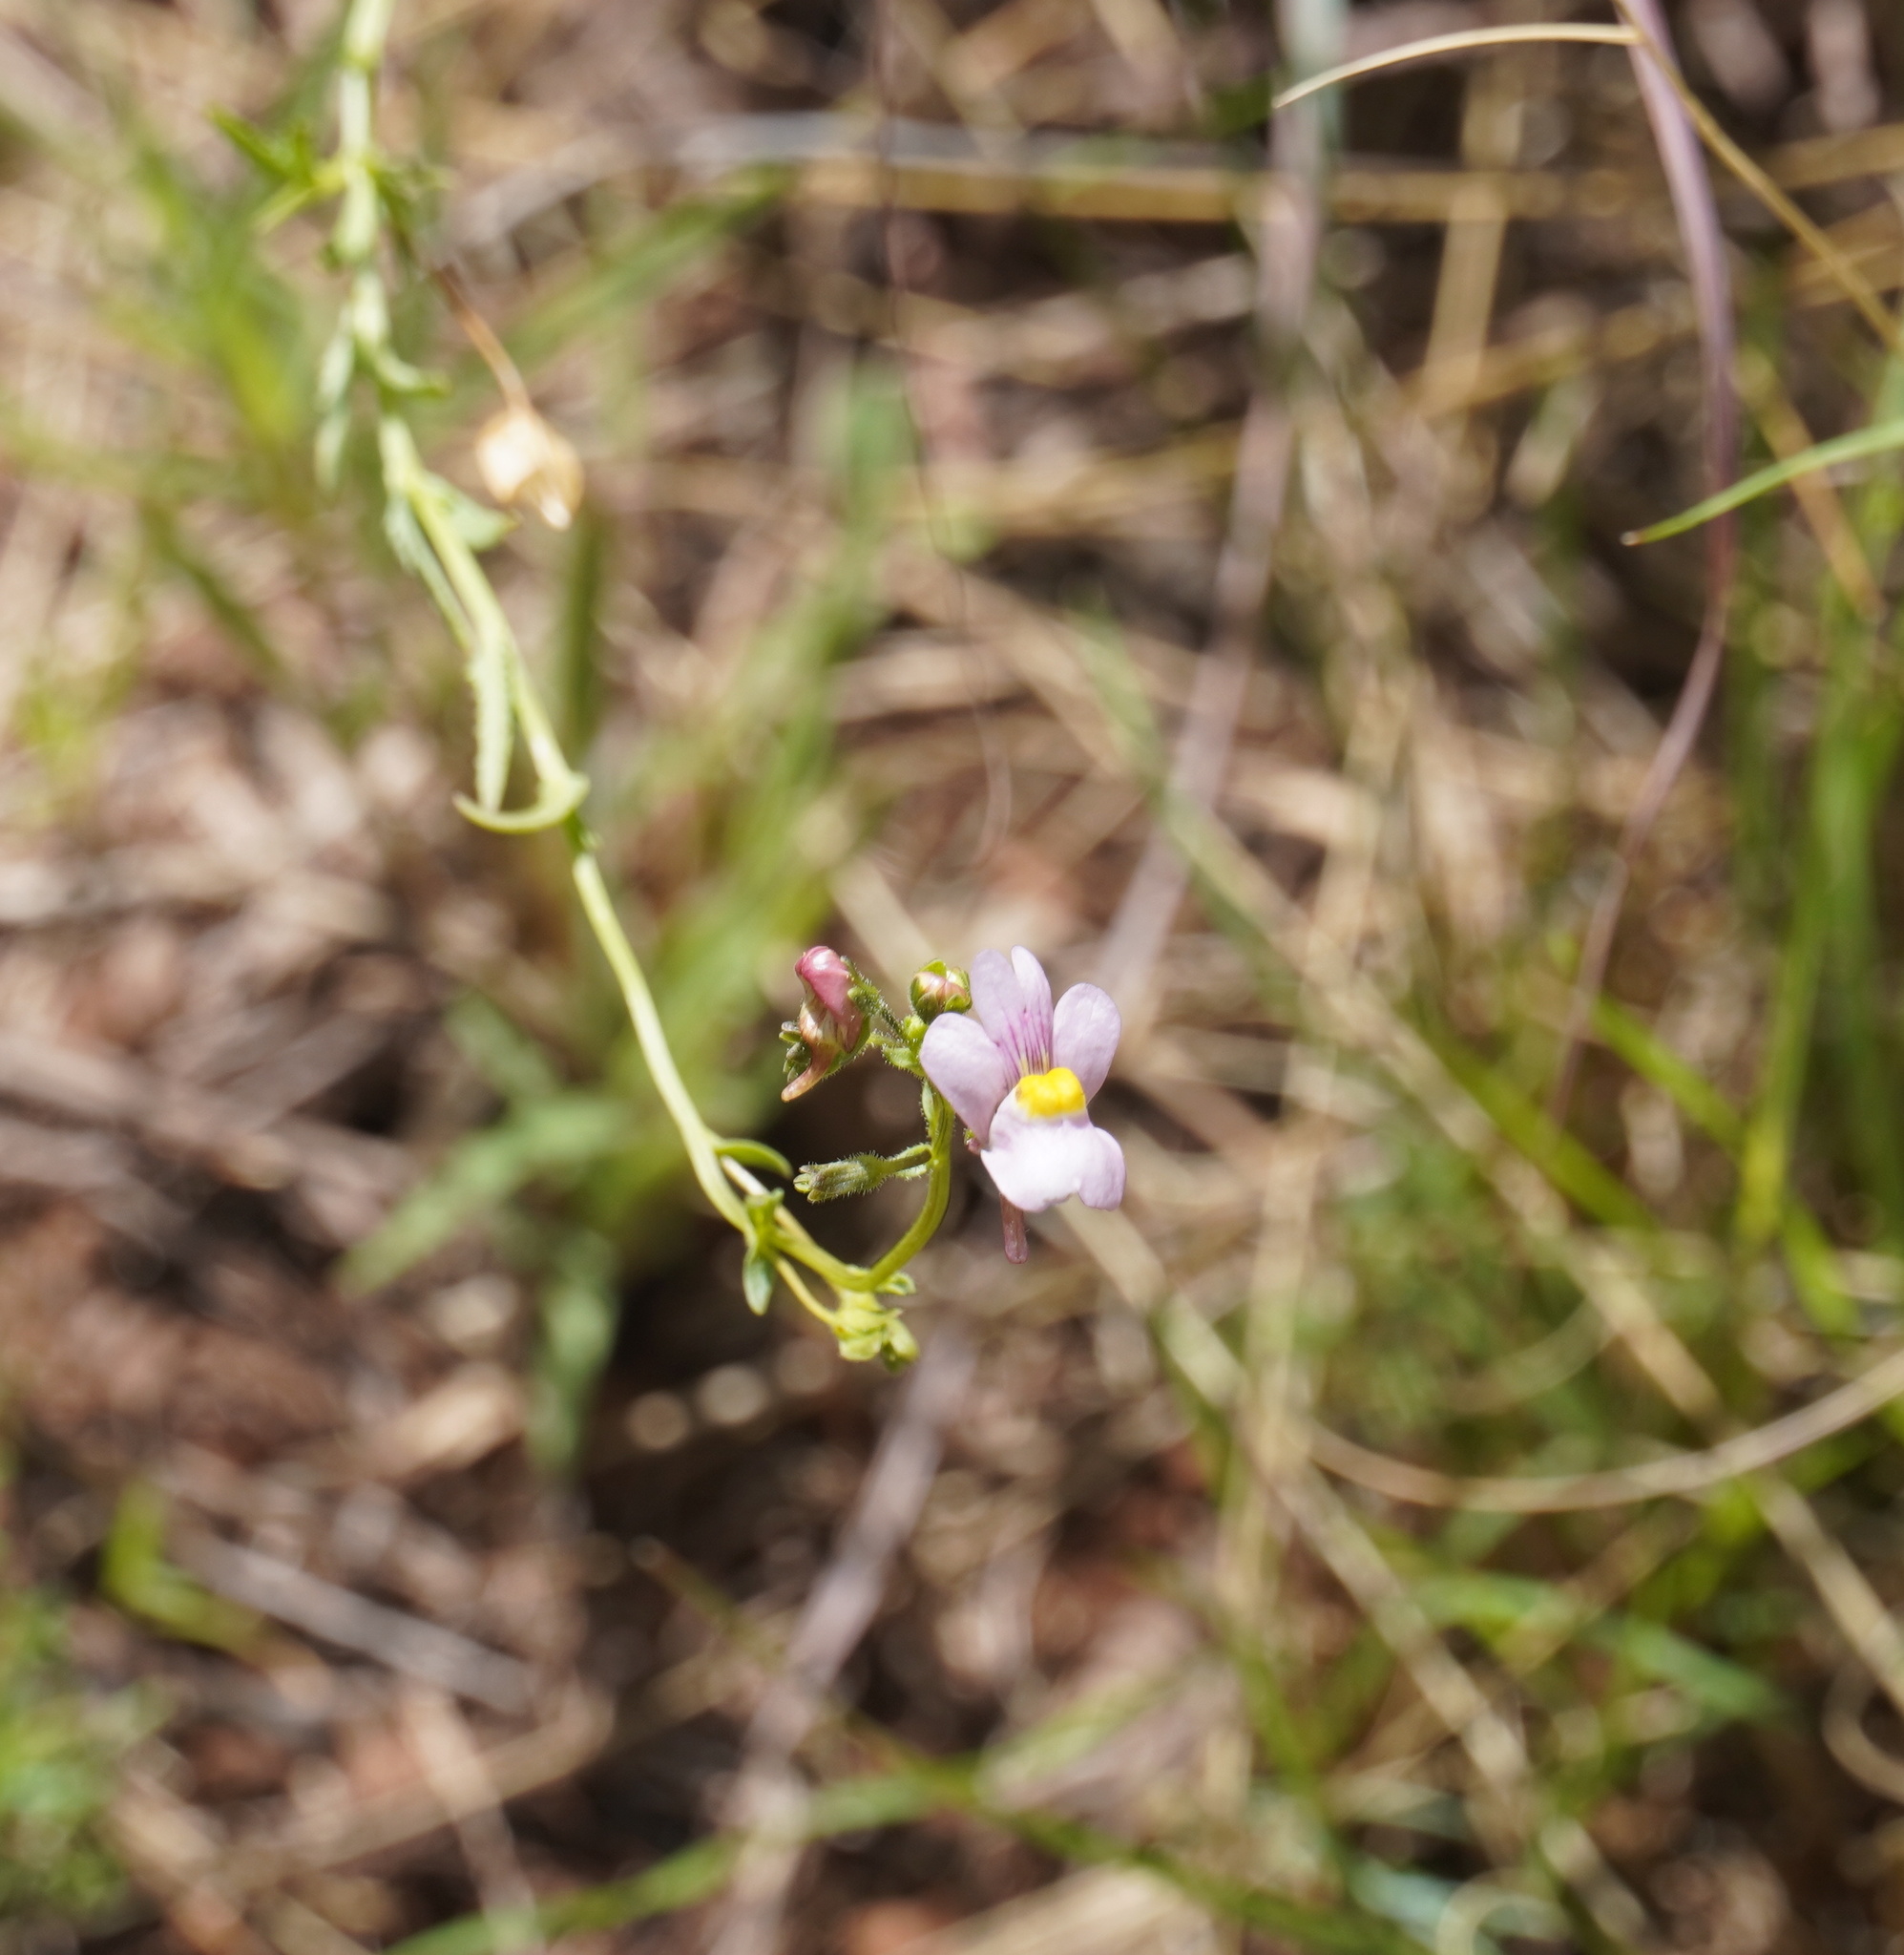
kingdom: Plantae
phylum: Tracheophyta
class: Magnoliopsida
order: Lamiales
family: Scrophulariaceae
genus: Nemesia
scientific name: Nemesia fruticans
